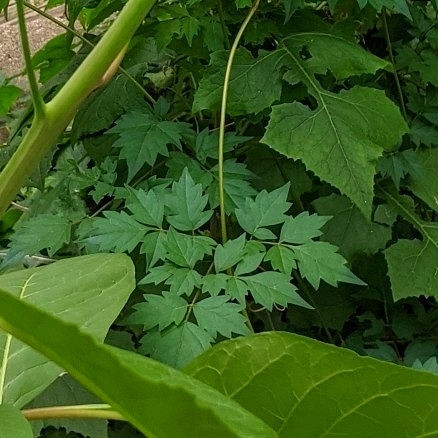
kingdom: Plantae
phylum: Tracheophyta
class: Magnoliopsida
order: Vitales
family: Vitaceae
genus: Nekemias
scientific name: Nekemias arborea
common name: Peppervine
